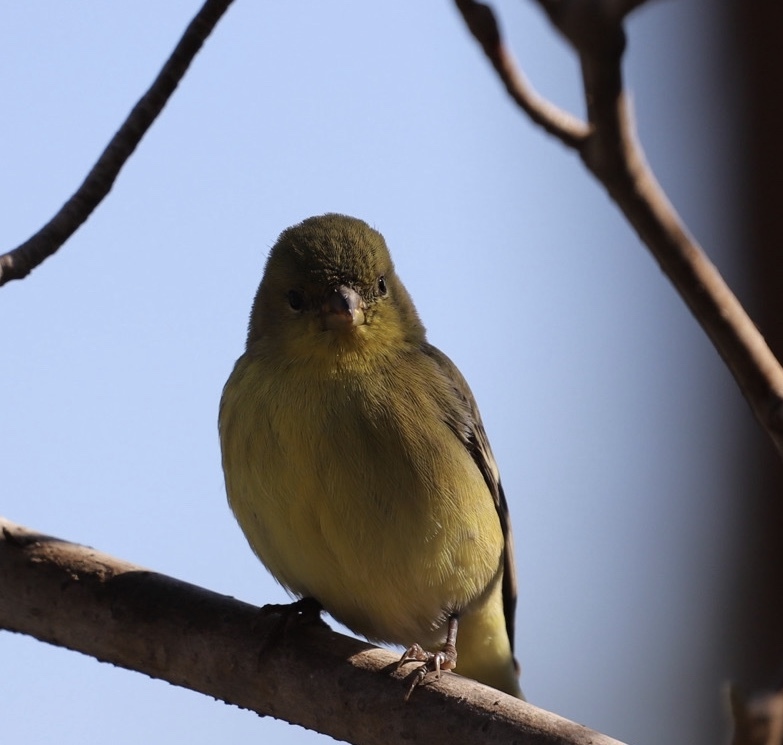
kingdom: Animalia
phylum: Chordata
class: Aves
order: Passeriformes
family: Fringillidae
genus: Spinus
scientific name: Spinus psaltria
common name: Lesser goldfinch
